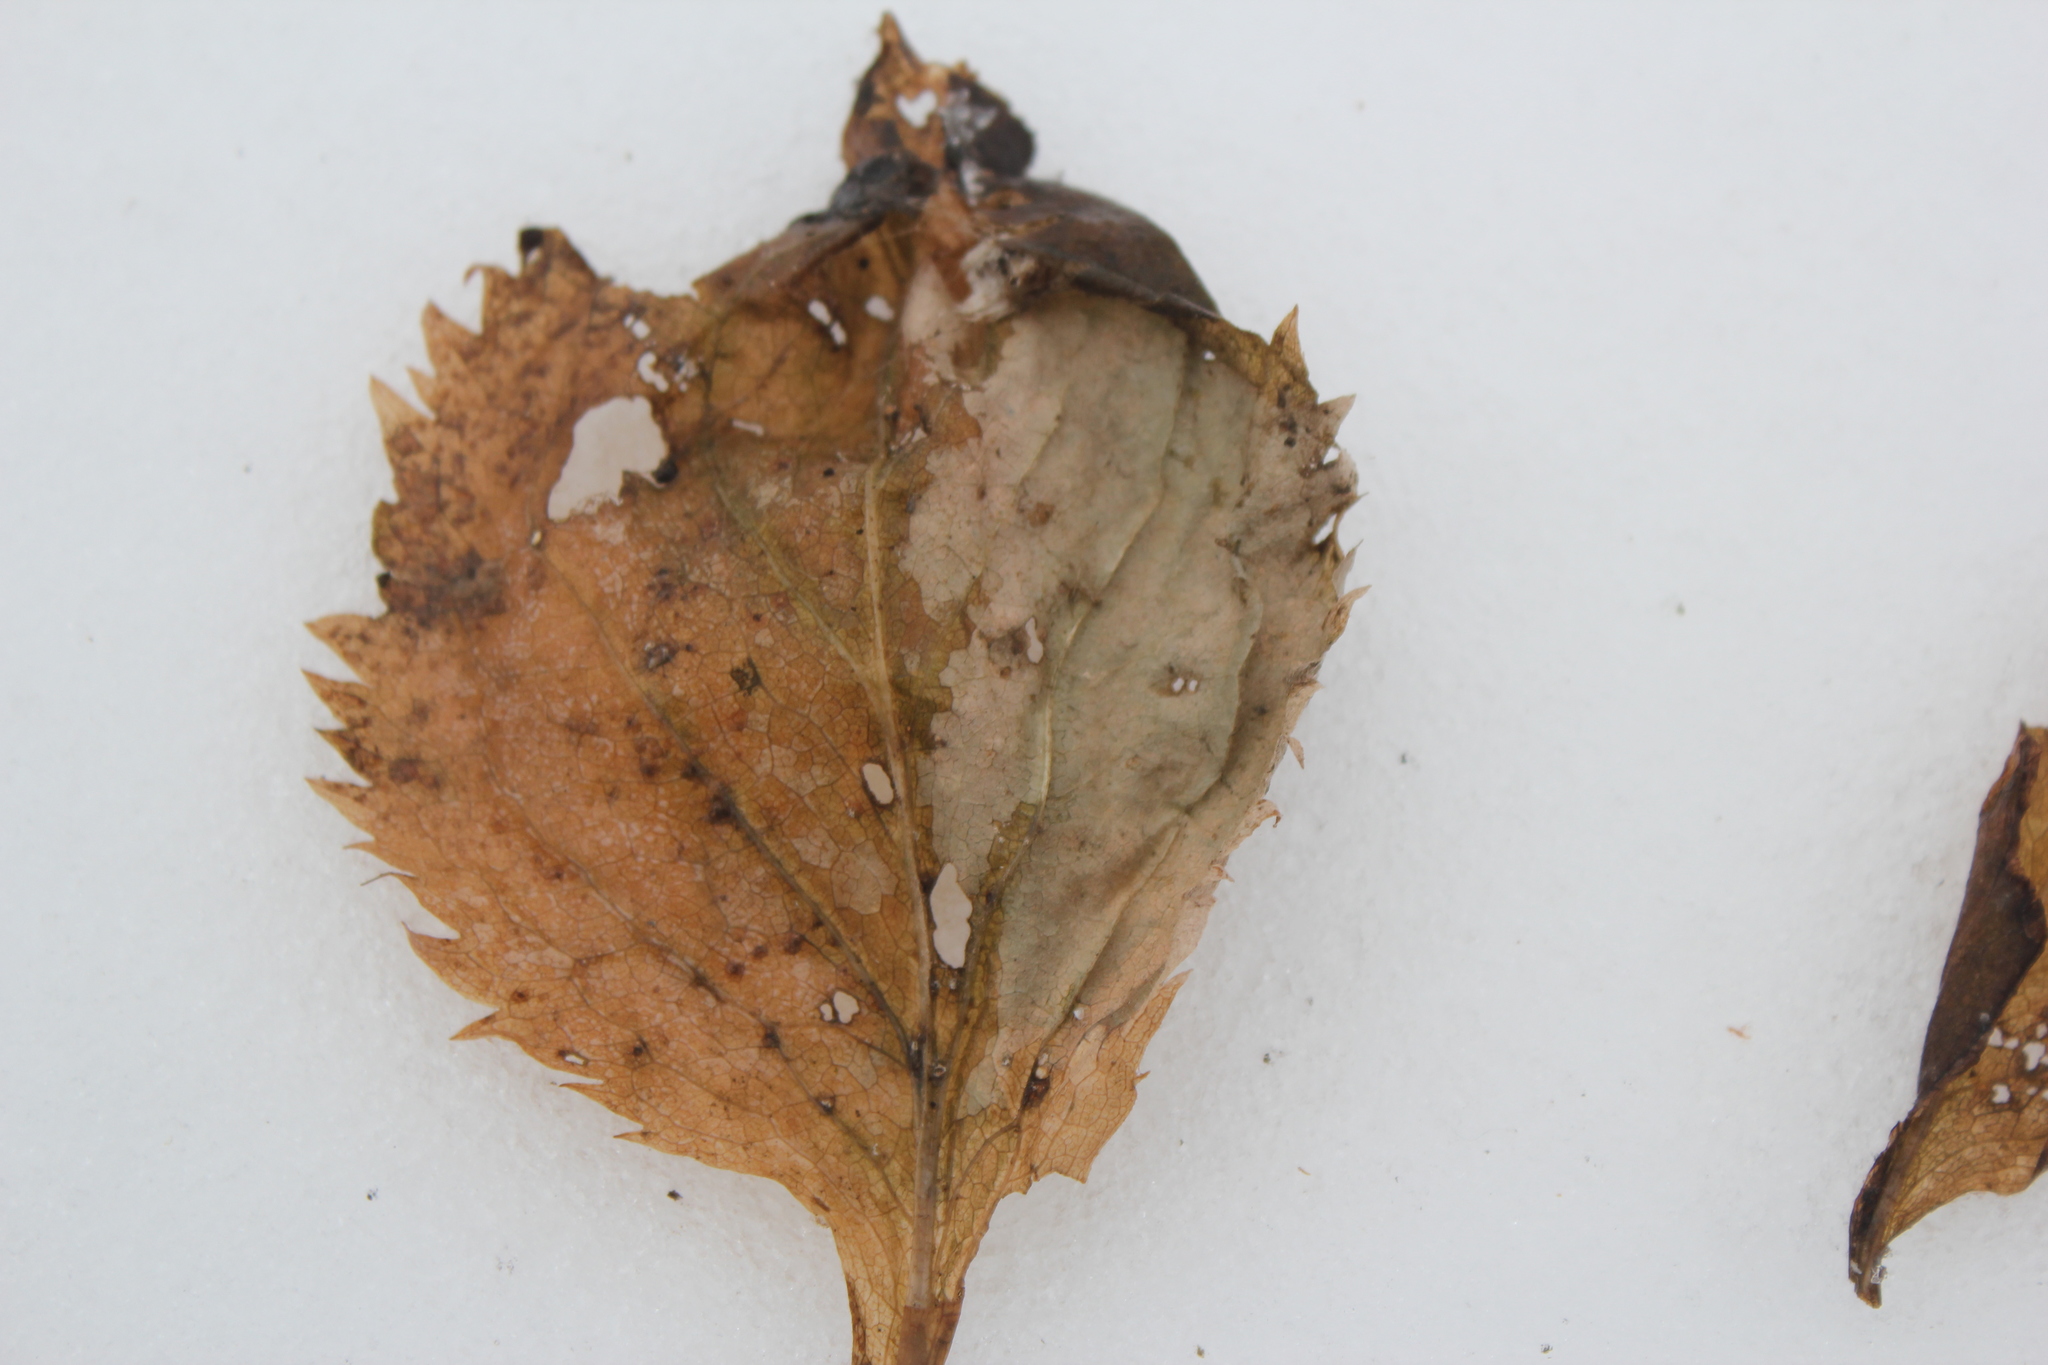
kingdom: Plantae
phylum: Tracheophyta
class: Magnoliopsida
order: Asterales
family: Asteraceae
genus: Solidago
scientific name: Solidago flexicaulis
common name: Zig-zag goldenrod
